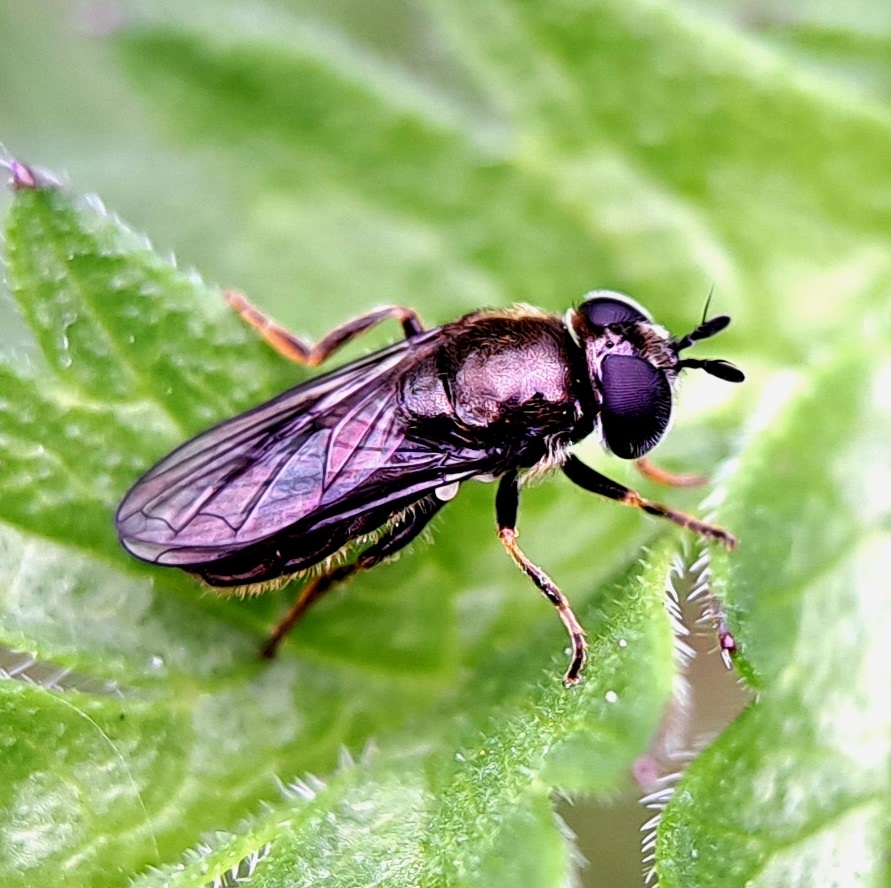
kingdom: Animalia
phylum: Arthropoda
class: Insecta
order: Diptera
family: Syrphidae
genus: Pipizella
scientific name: Pipizella
